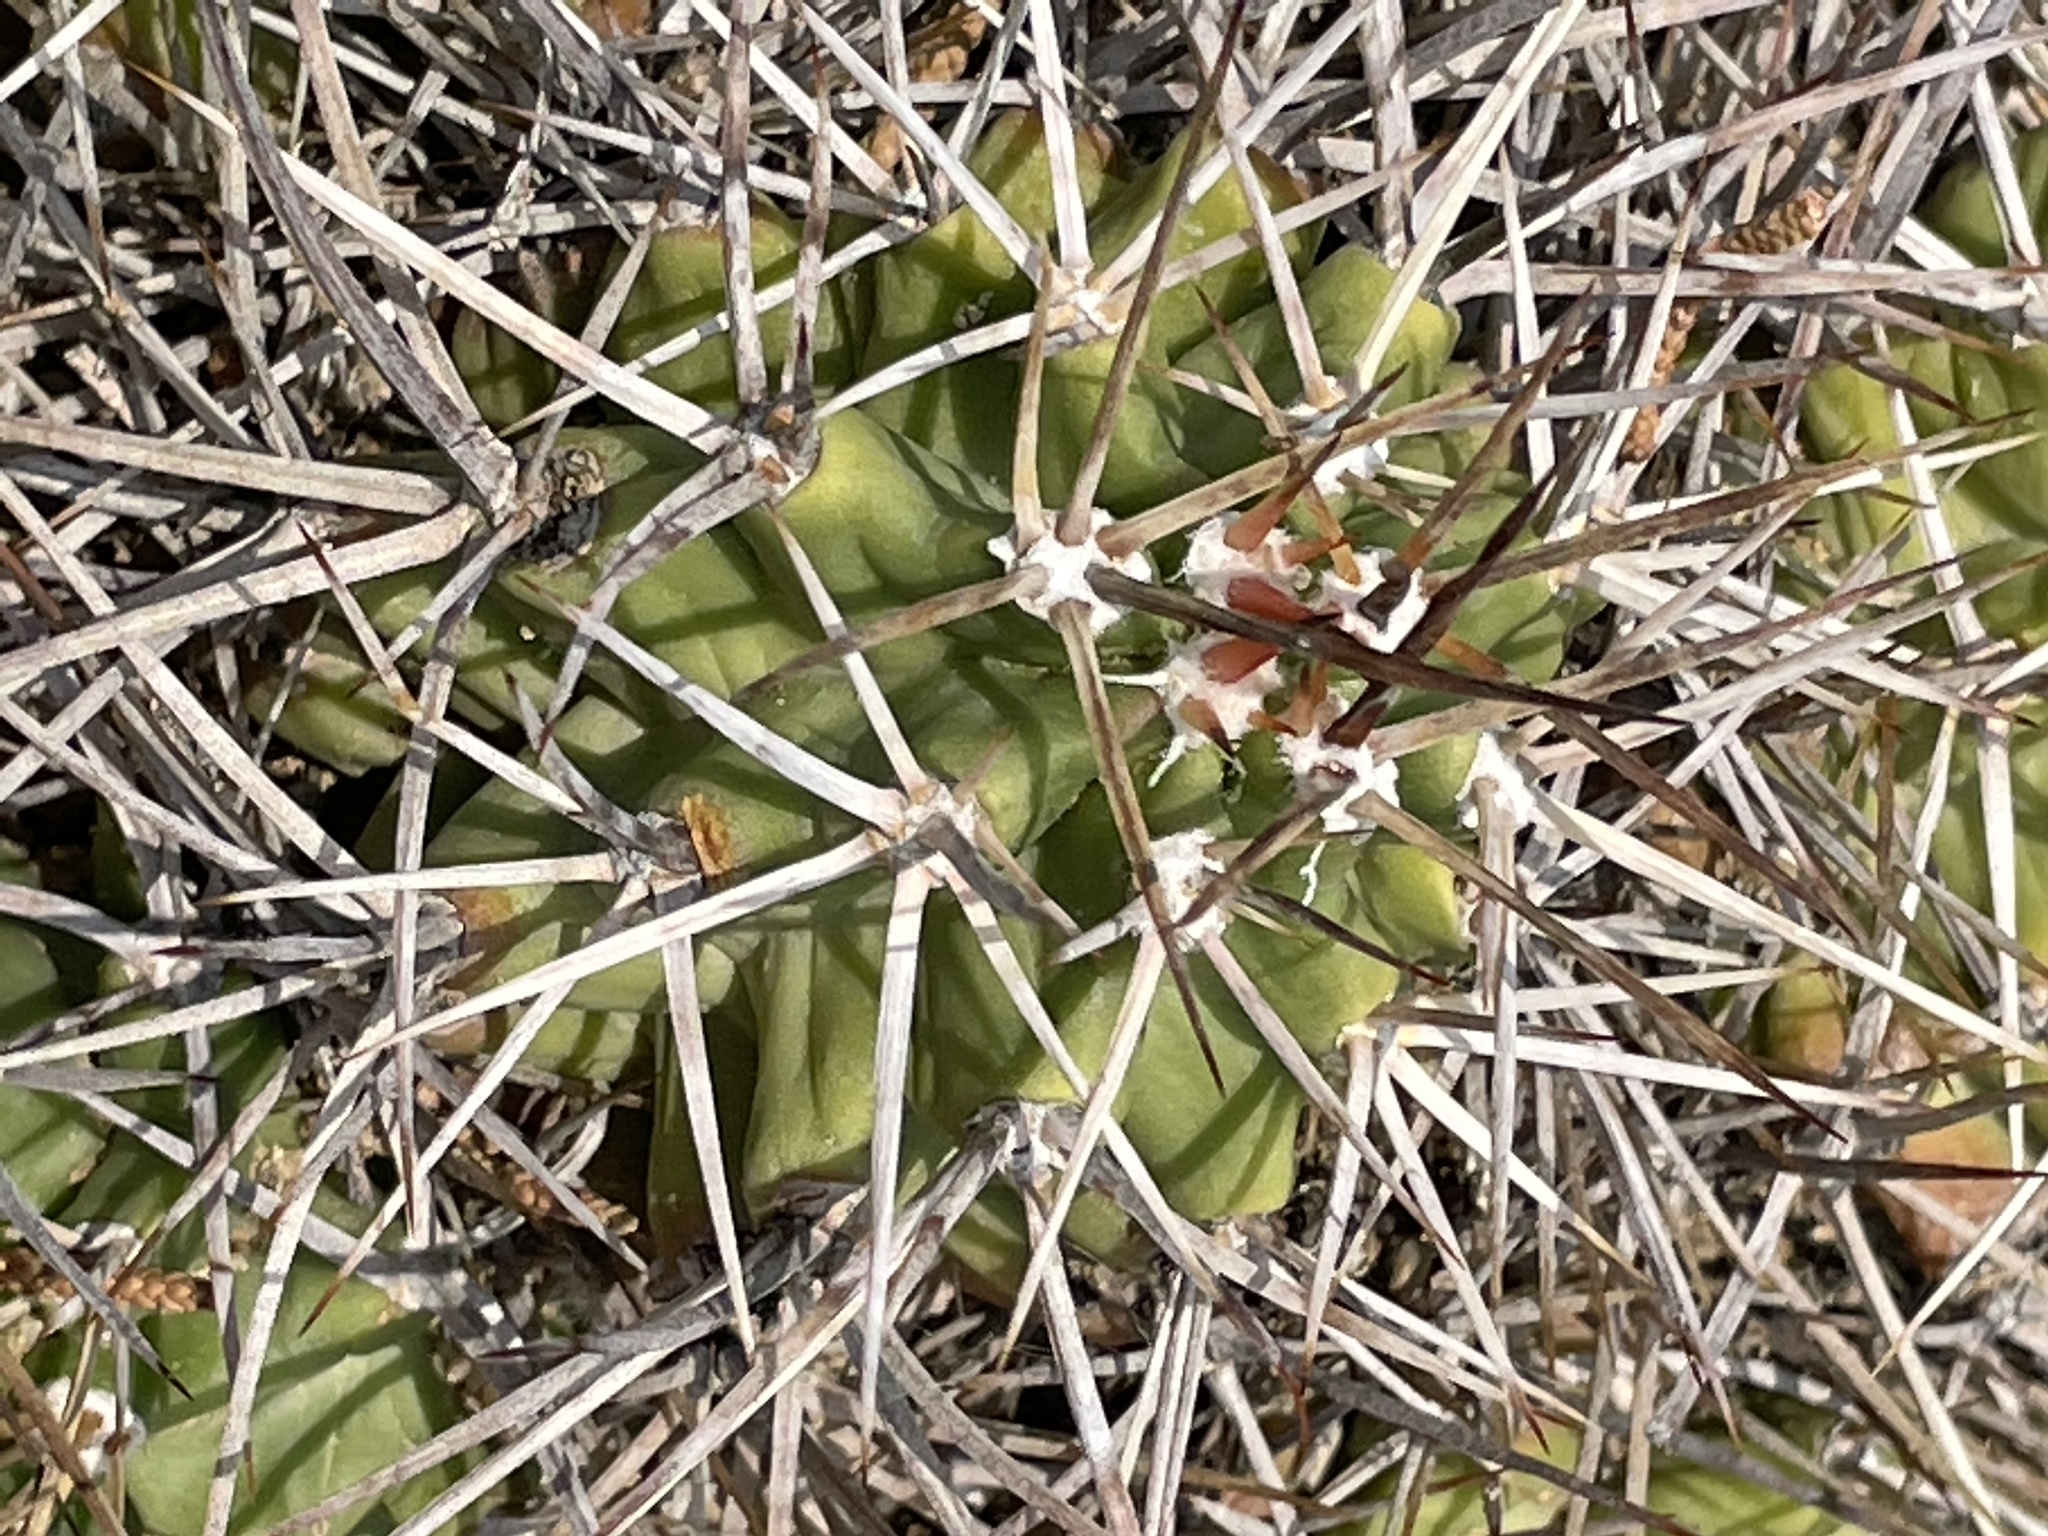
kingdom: Plantae
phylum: Tracheophyta
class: Magnoliopsida
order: Caryophyllales
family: Cactaceae
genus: Echinocereus
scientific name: Echinocereus triglochidiatus
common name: Claretcup hedgehog
